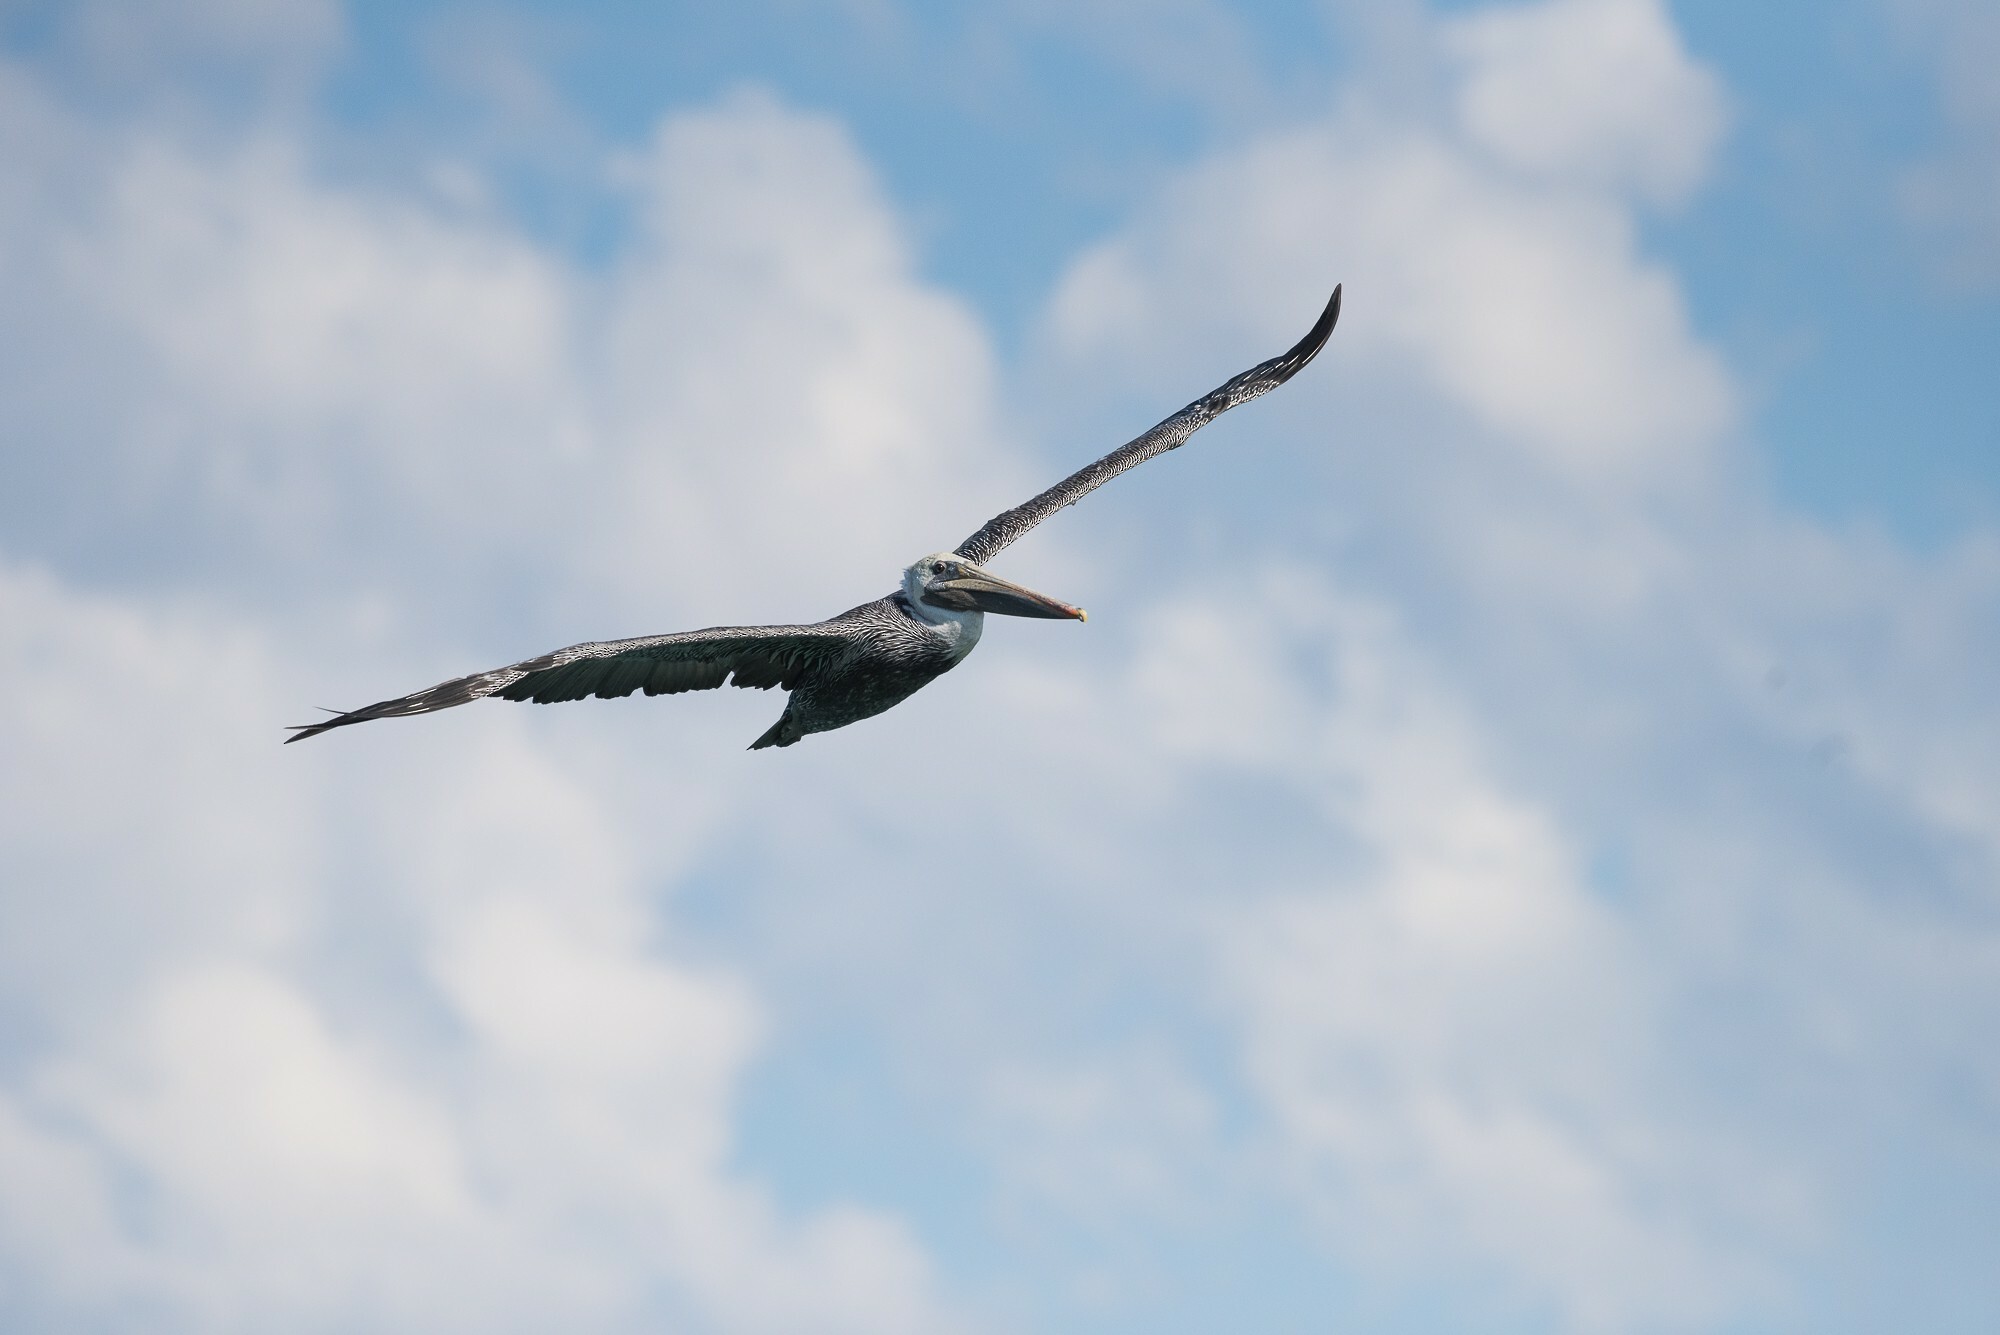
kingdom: Animalia
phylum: Chordata
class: Aves
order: Pelecaniformes
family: Pelecanidae
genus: Pelecanus
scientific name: Pelecanus occidentalis
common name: Brown pelican
